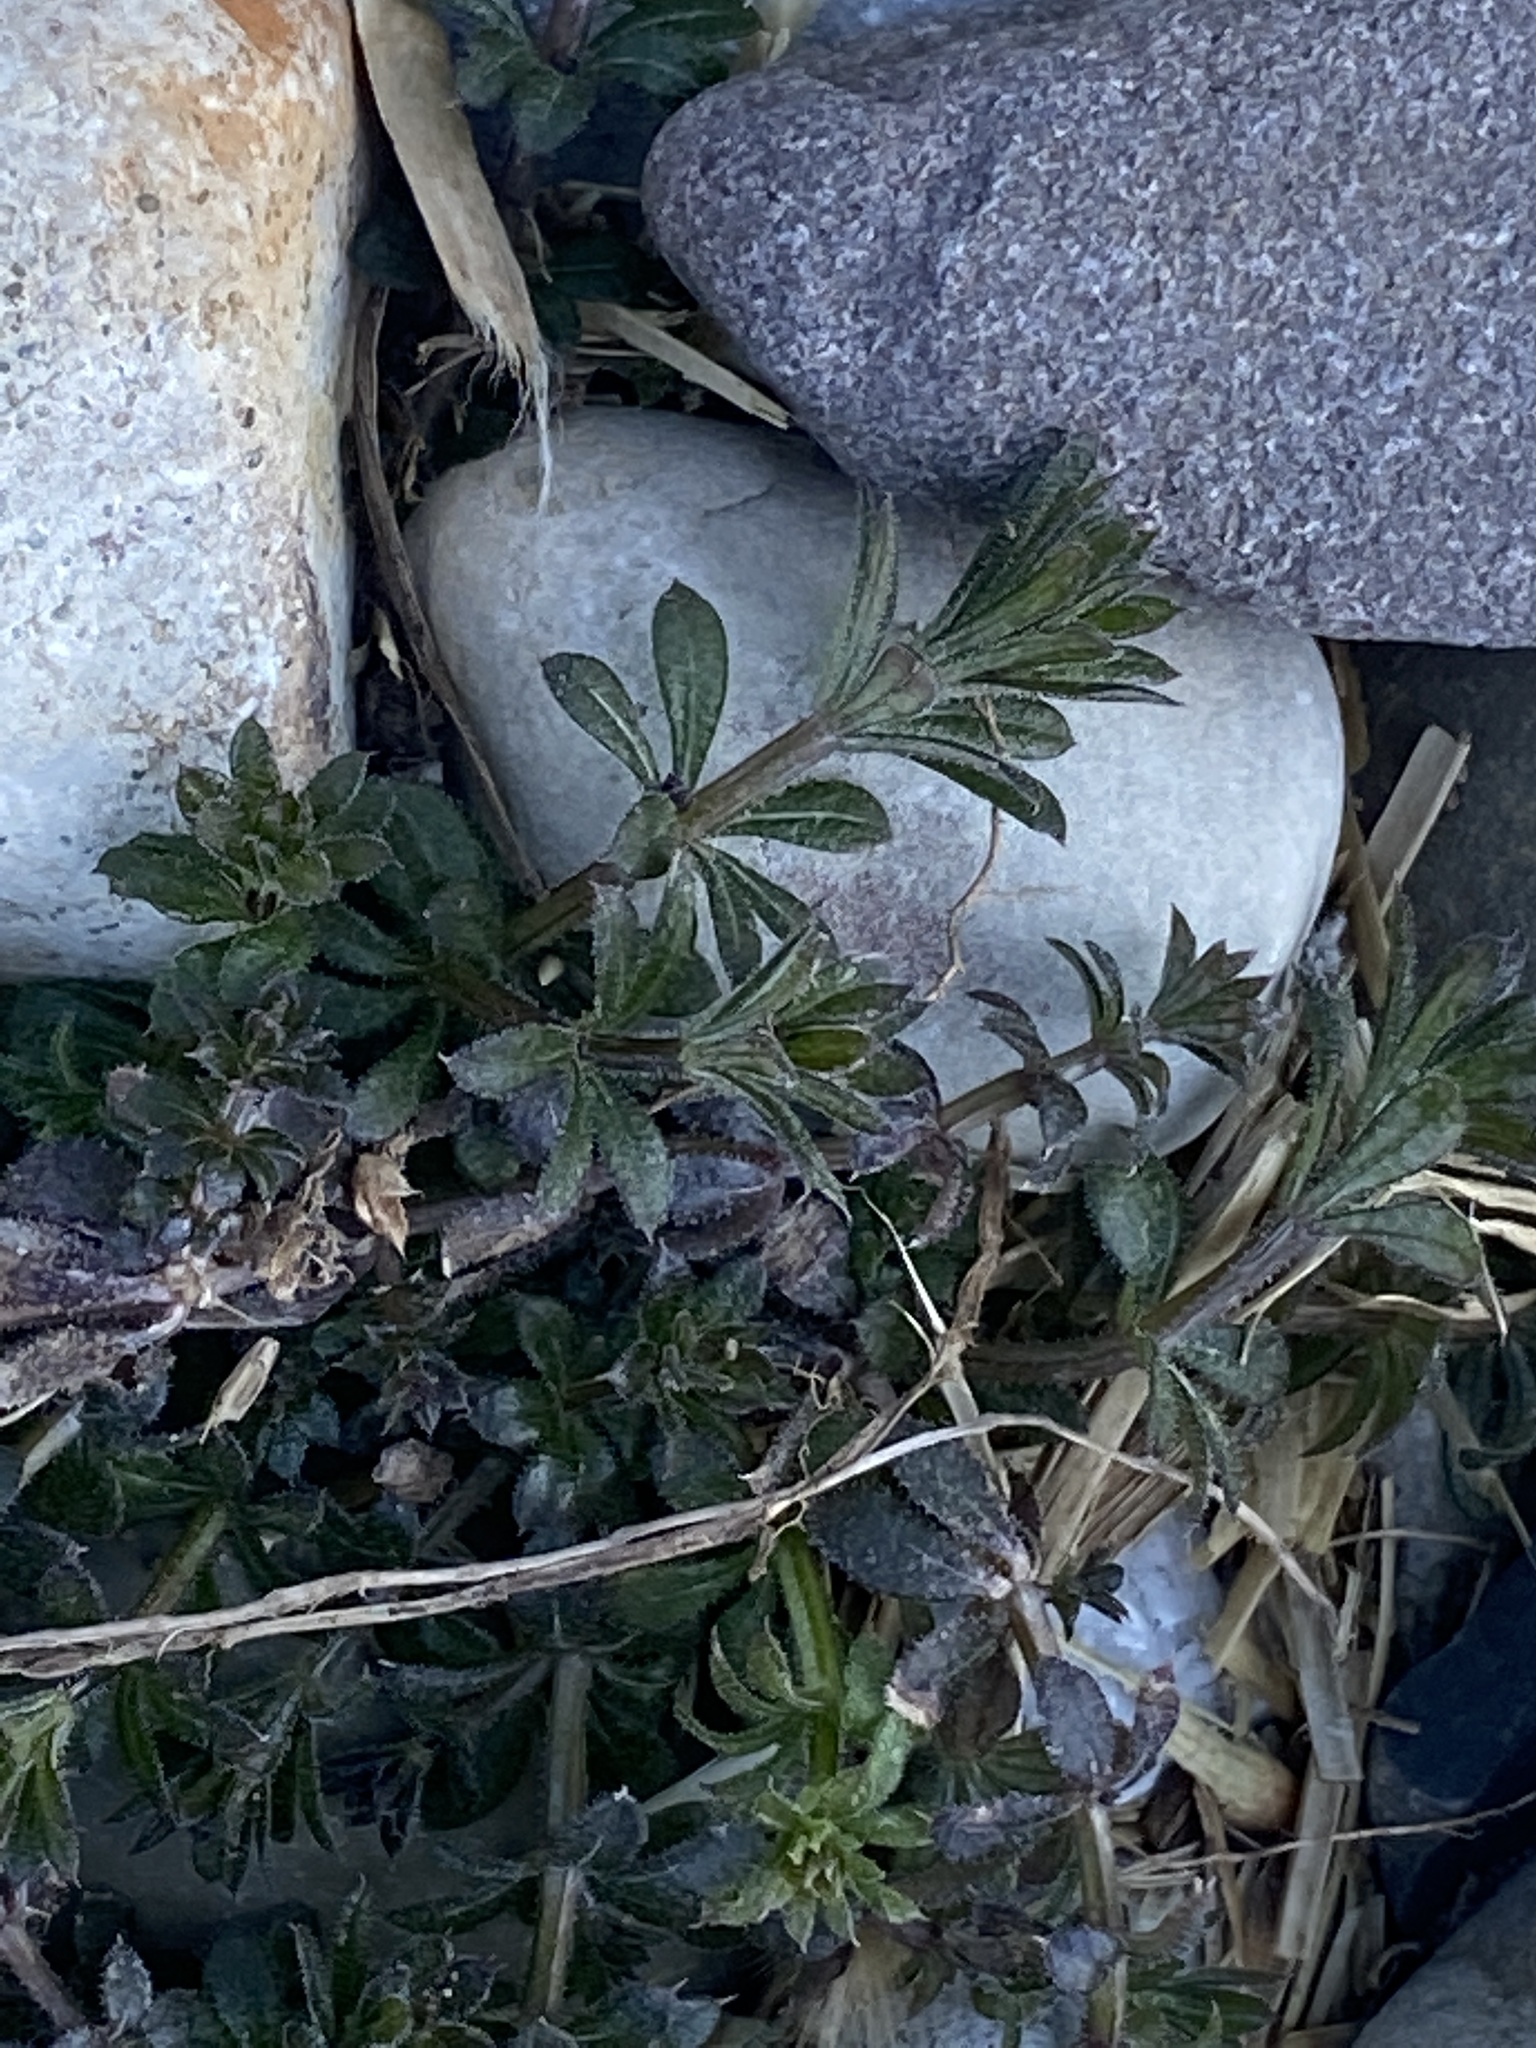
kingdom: Plantae
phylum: Tracheophyta
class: Magnoliopsida
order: Gentianales
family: Rubiaceae
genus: Galium
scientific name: Galium aparine
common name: Cleavers
